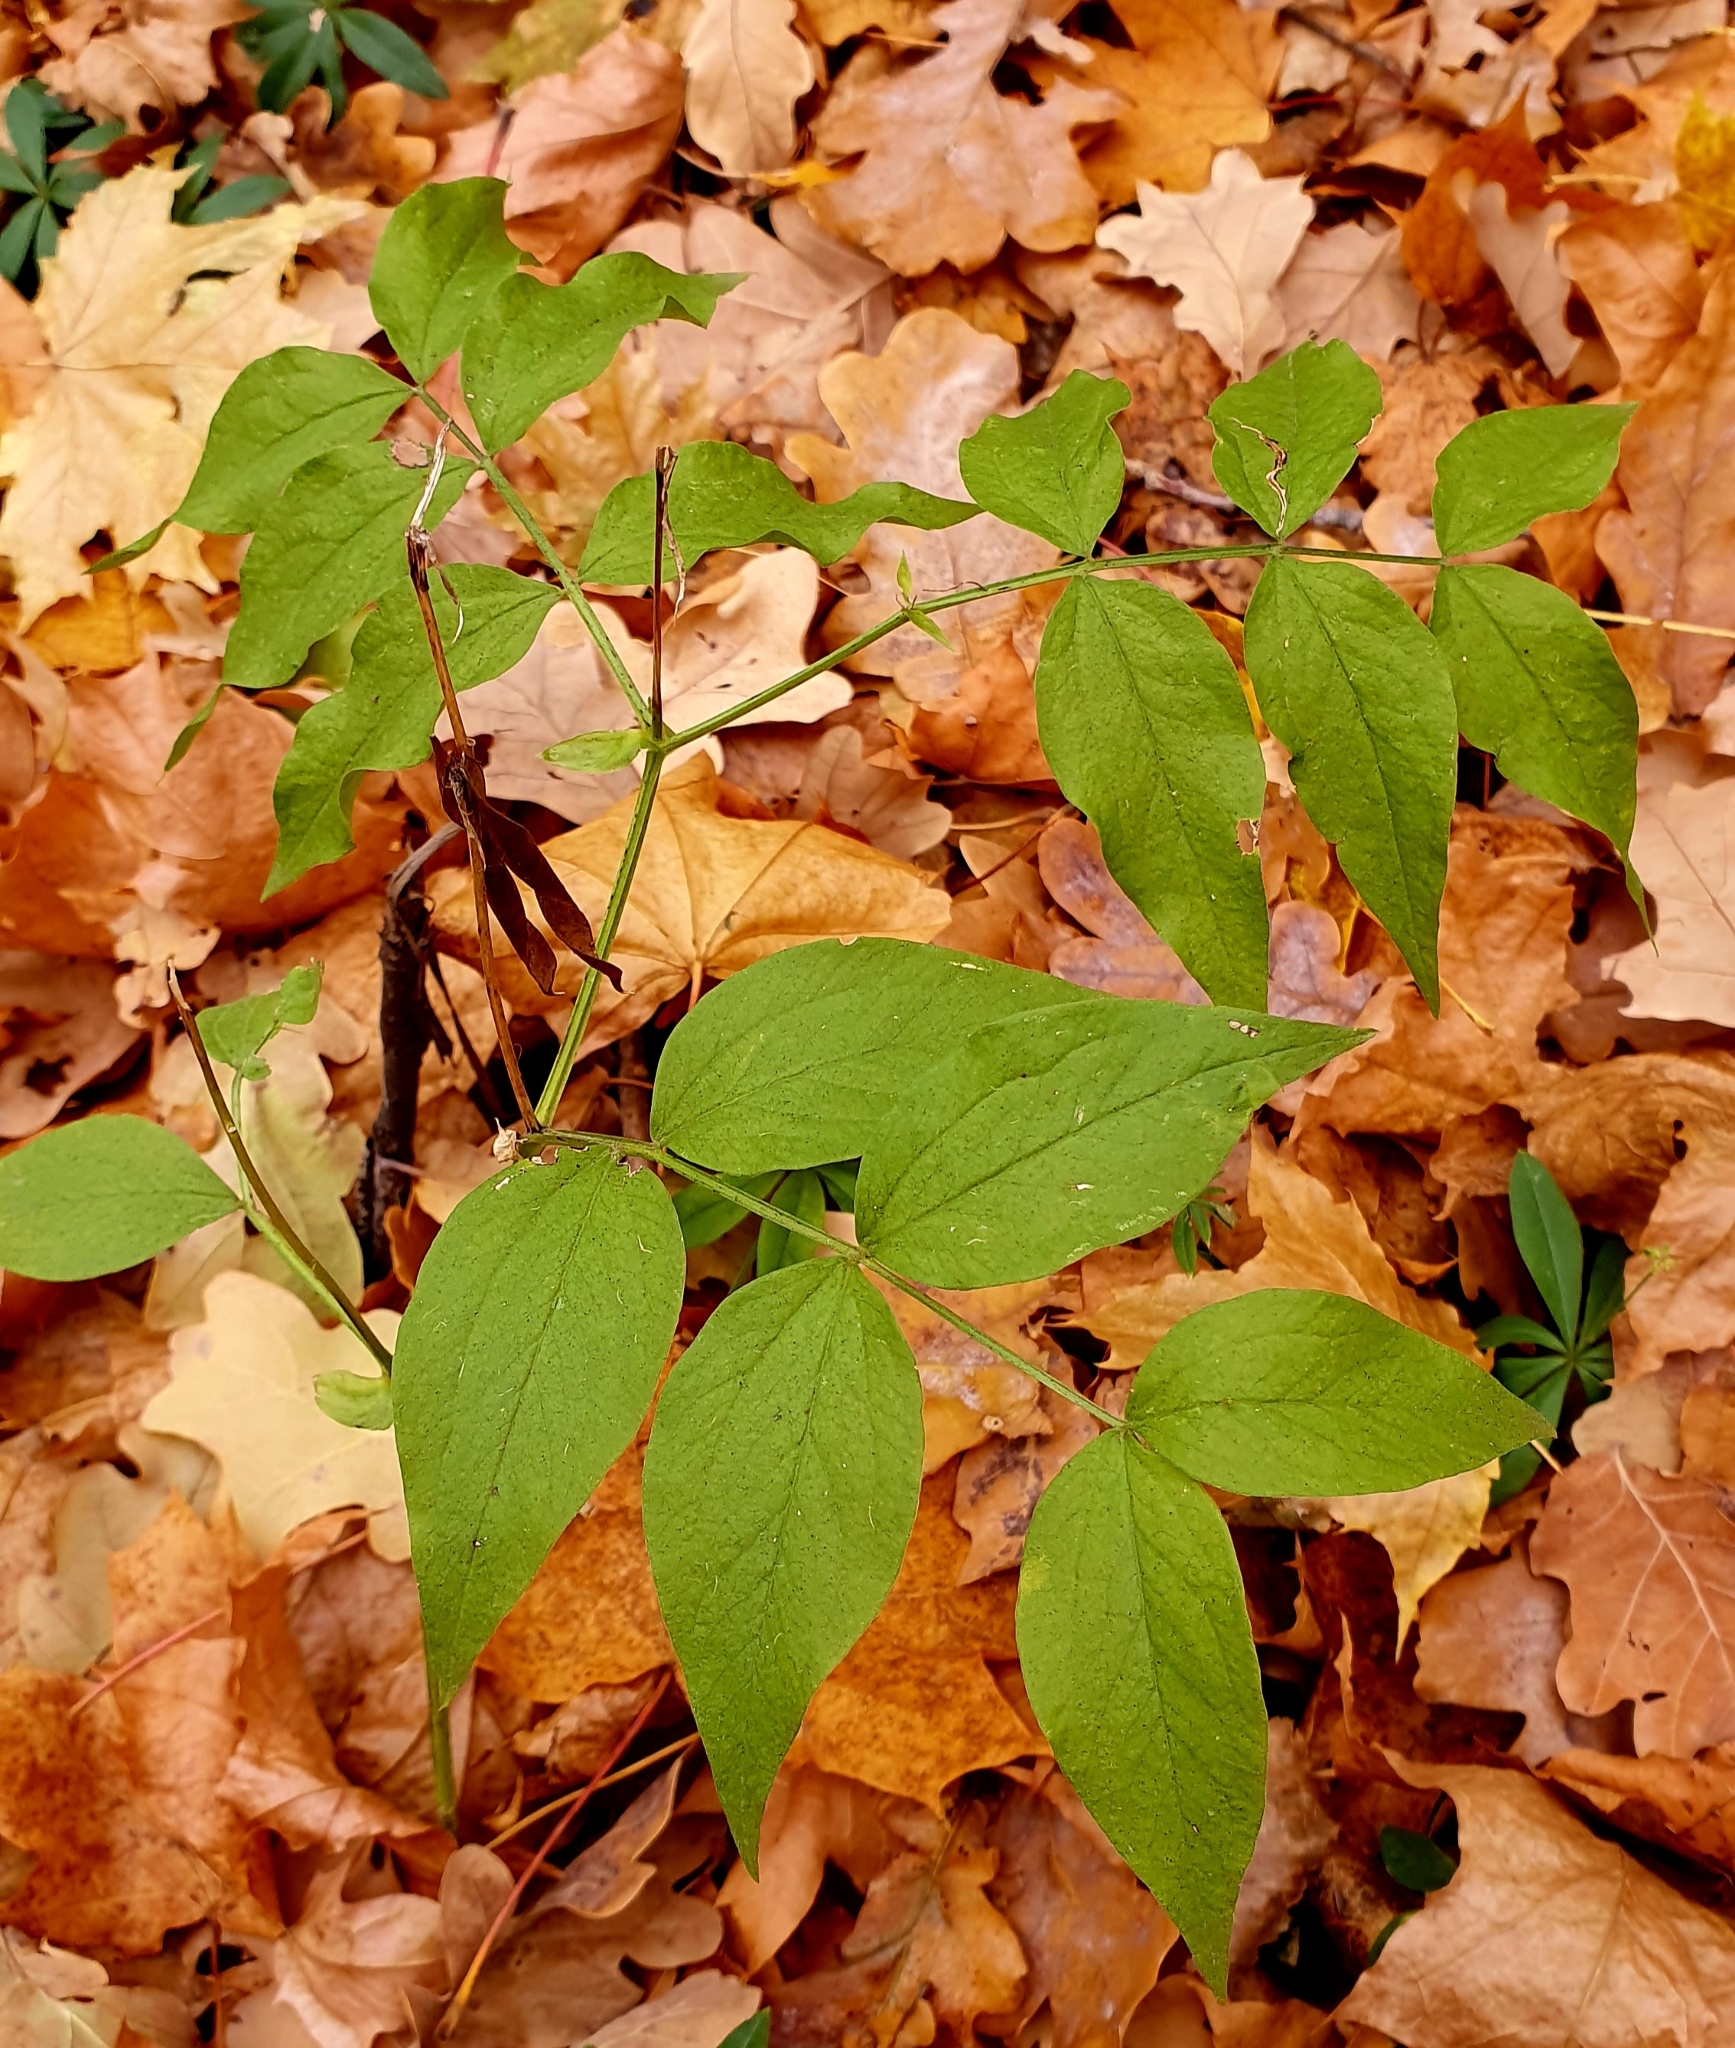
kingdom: Plantae
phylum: Tracheophyta
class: Magnoliopsida
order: Fabales
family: Fabaceae
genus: Lathyrus
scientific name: Lathyrus vernus
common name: Spring pea
